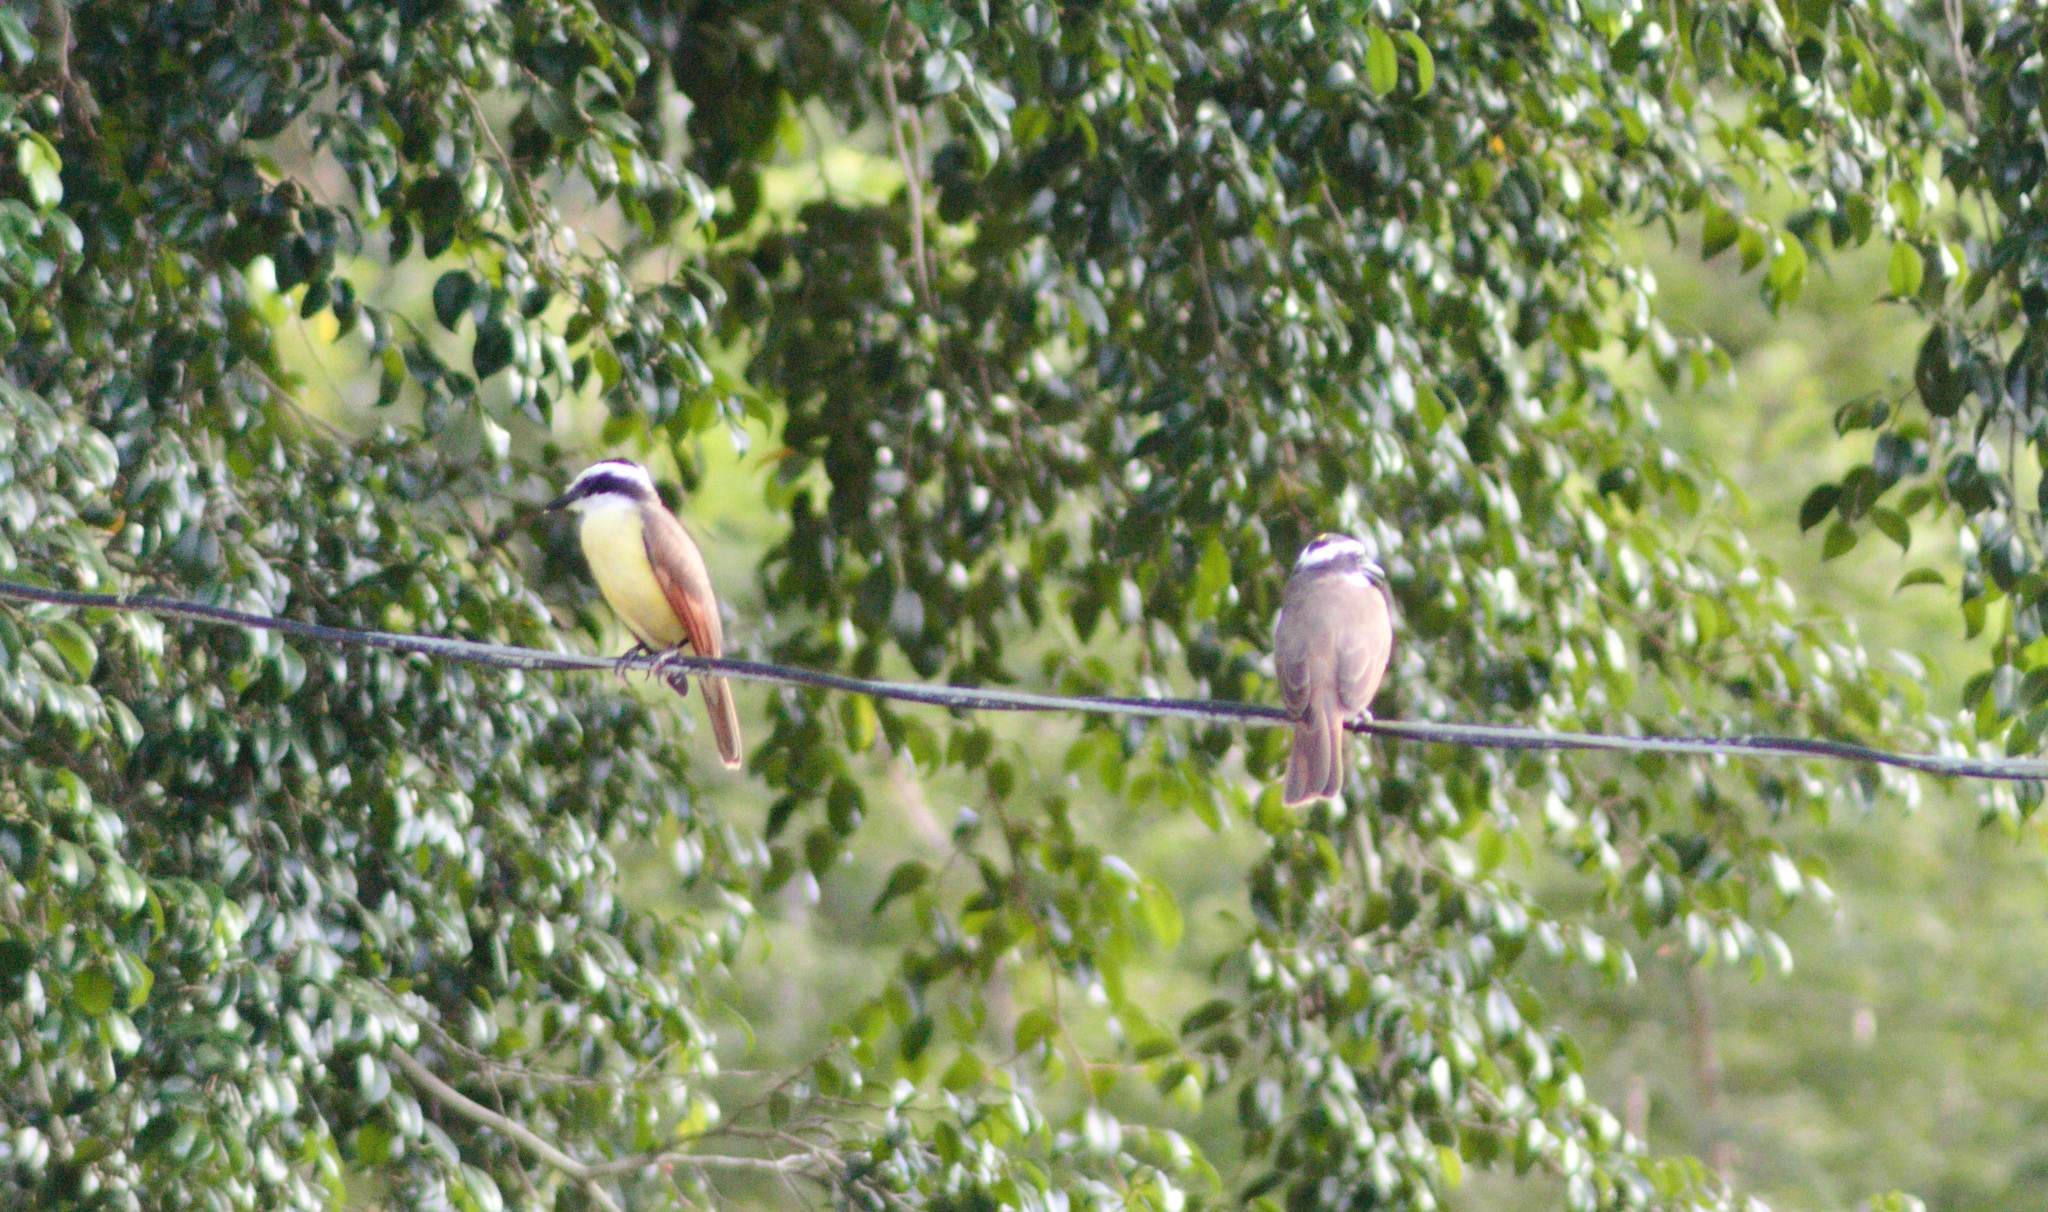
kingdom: Animalia
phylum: Chordata
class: Aves
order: Passeriformes
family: Tyrannidae
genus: Pitangus
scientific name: Pitangus sulphuratus
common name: Great kiskadee
